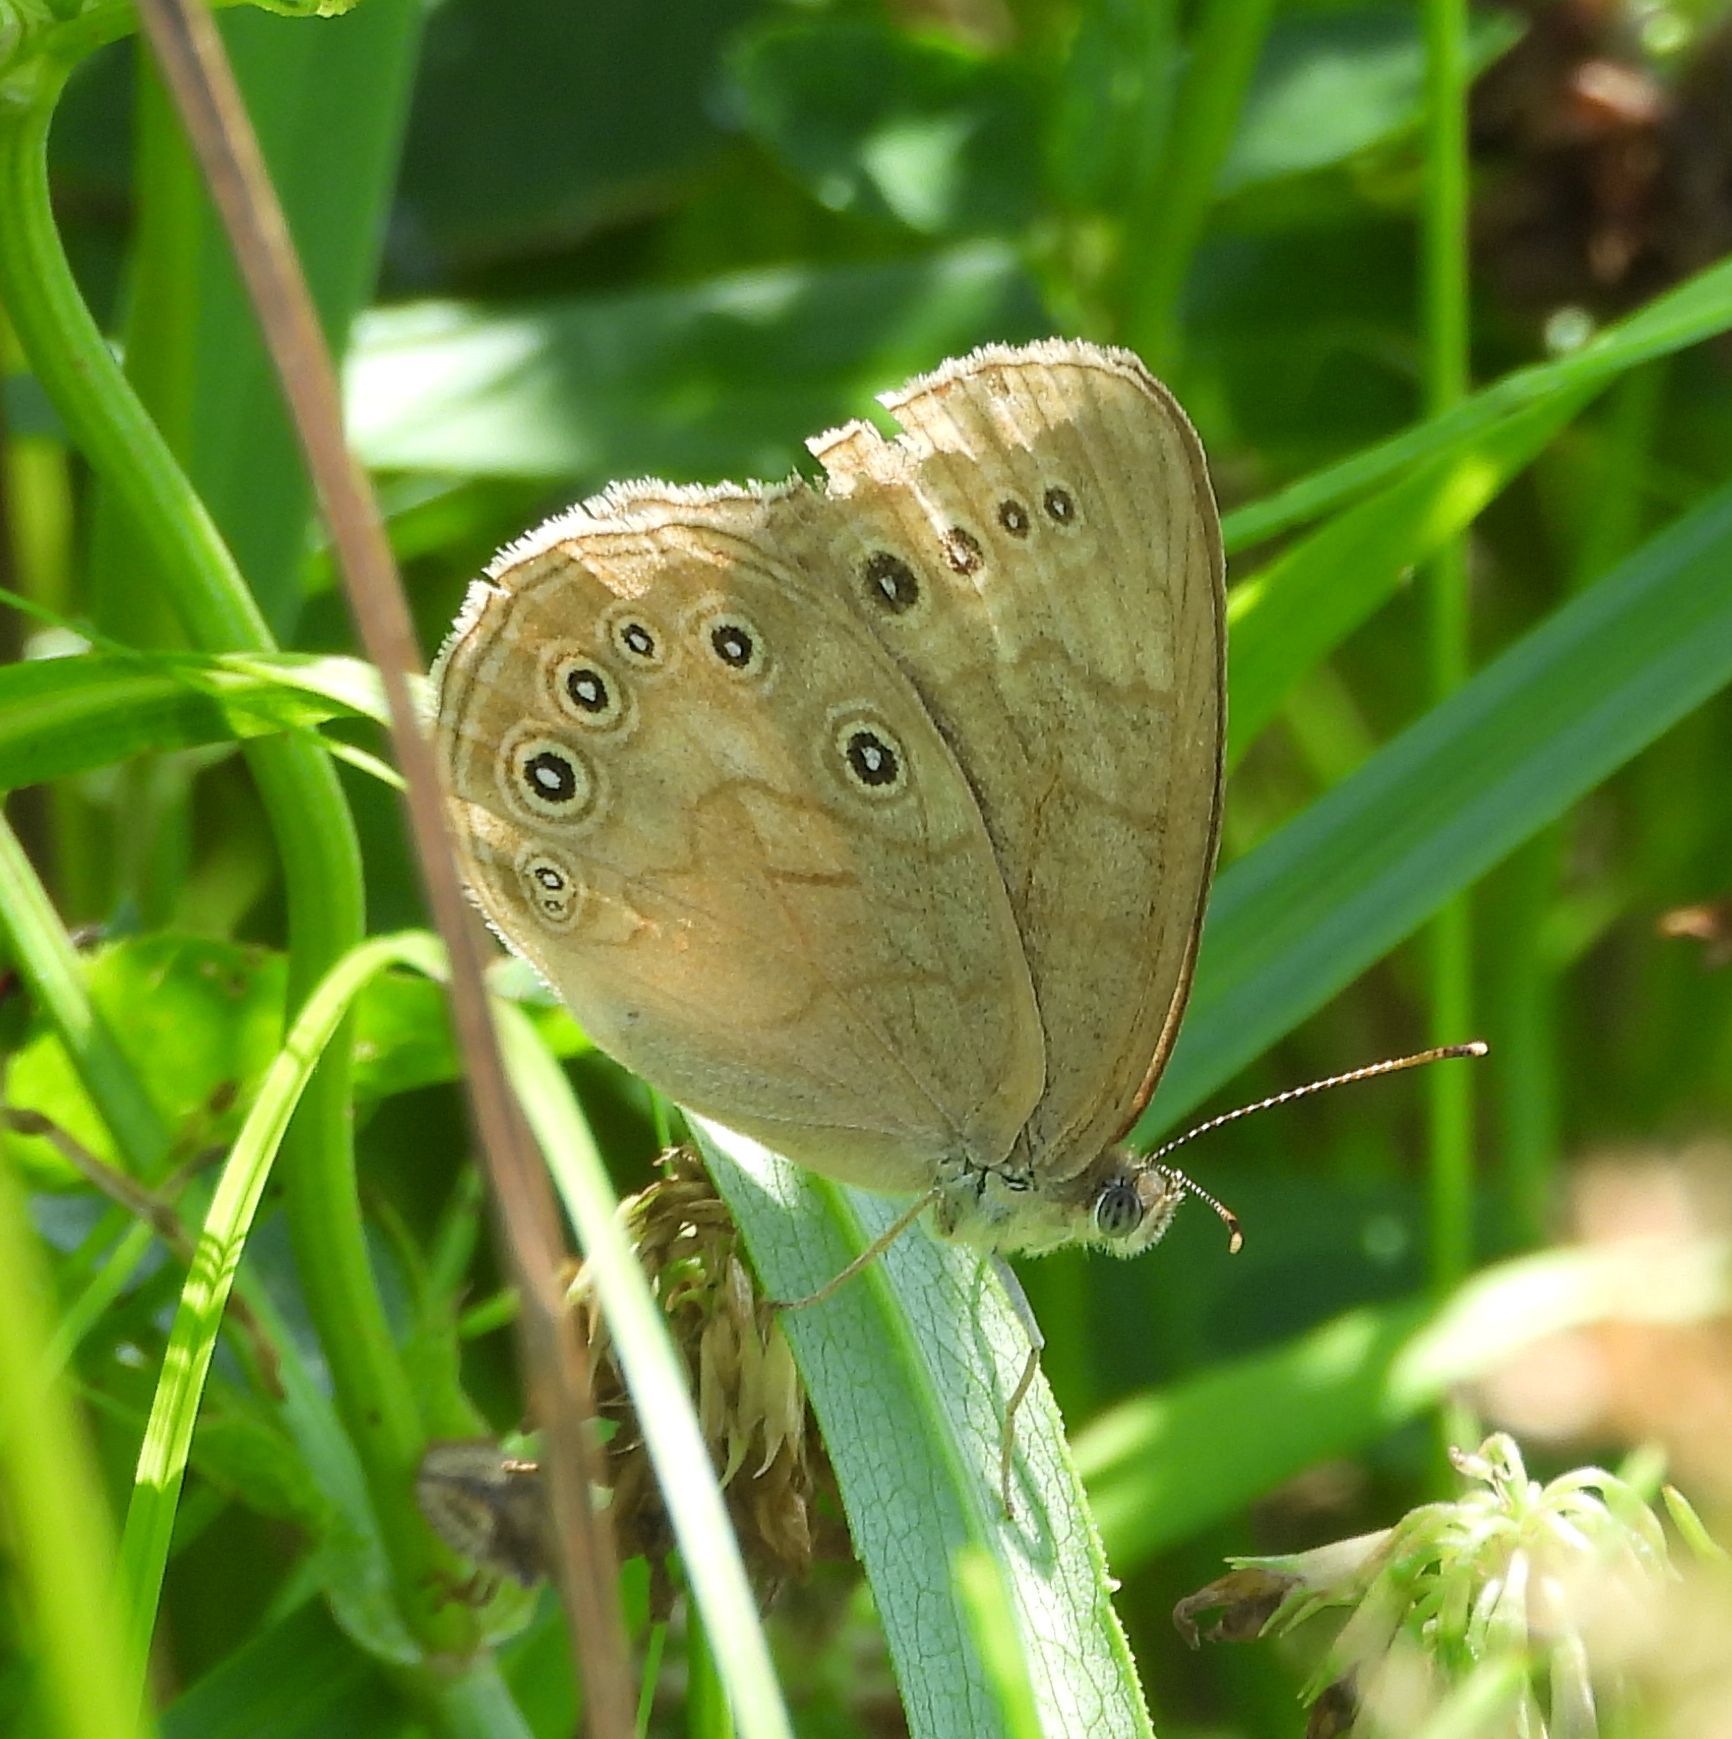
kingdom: Animalia
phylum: Arthropoda
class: Insecta
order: Lepidoptera
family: Nymphalidae
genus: Lethe
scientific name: Lethe eurydice
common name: Eyed brown
